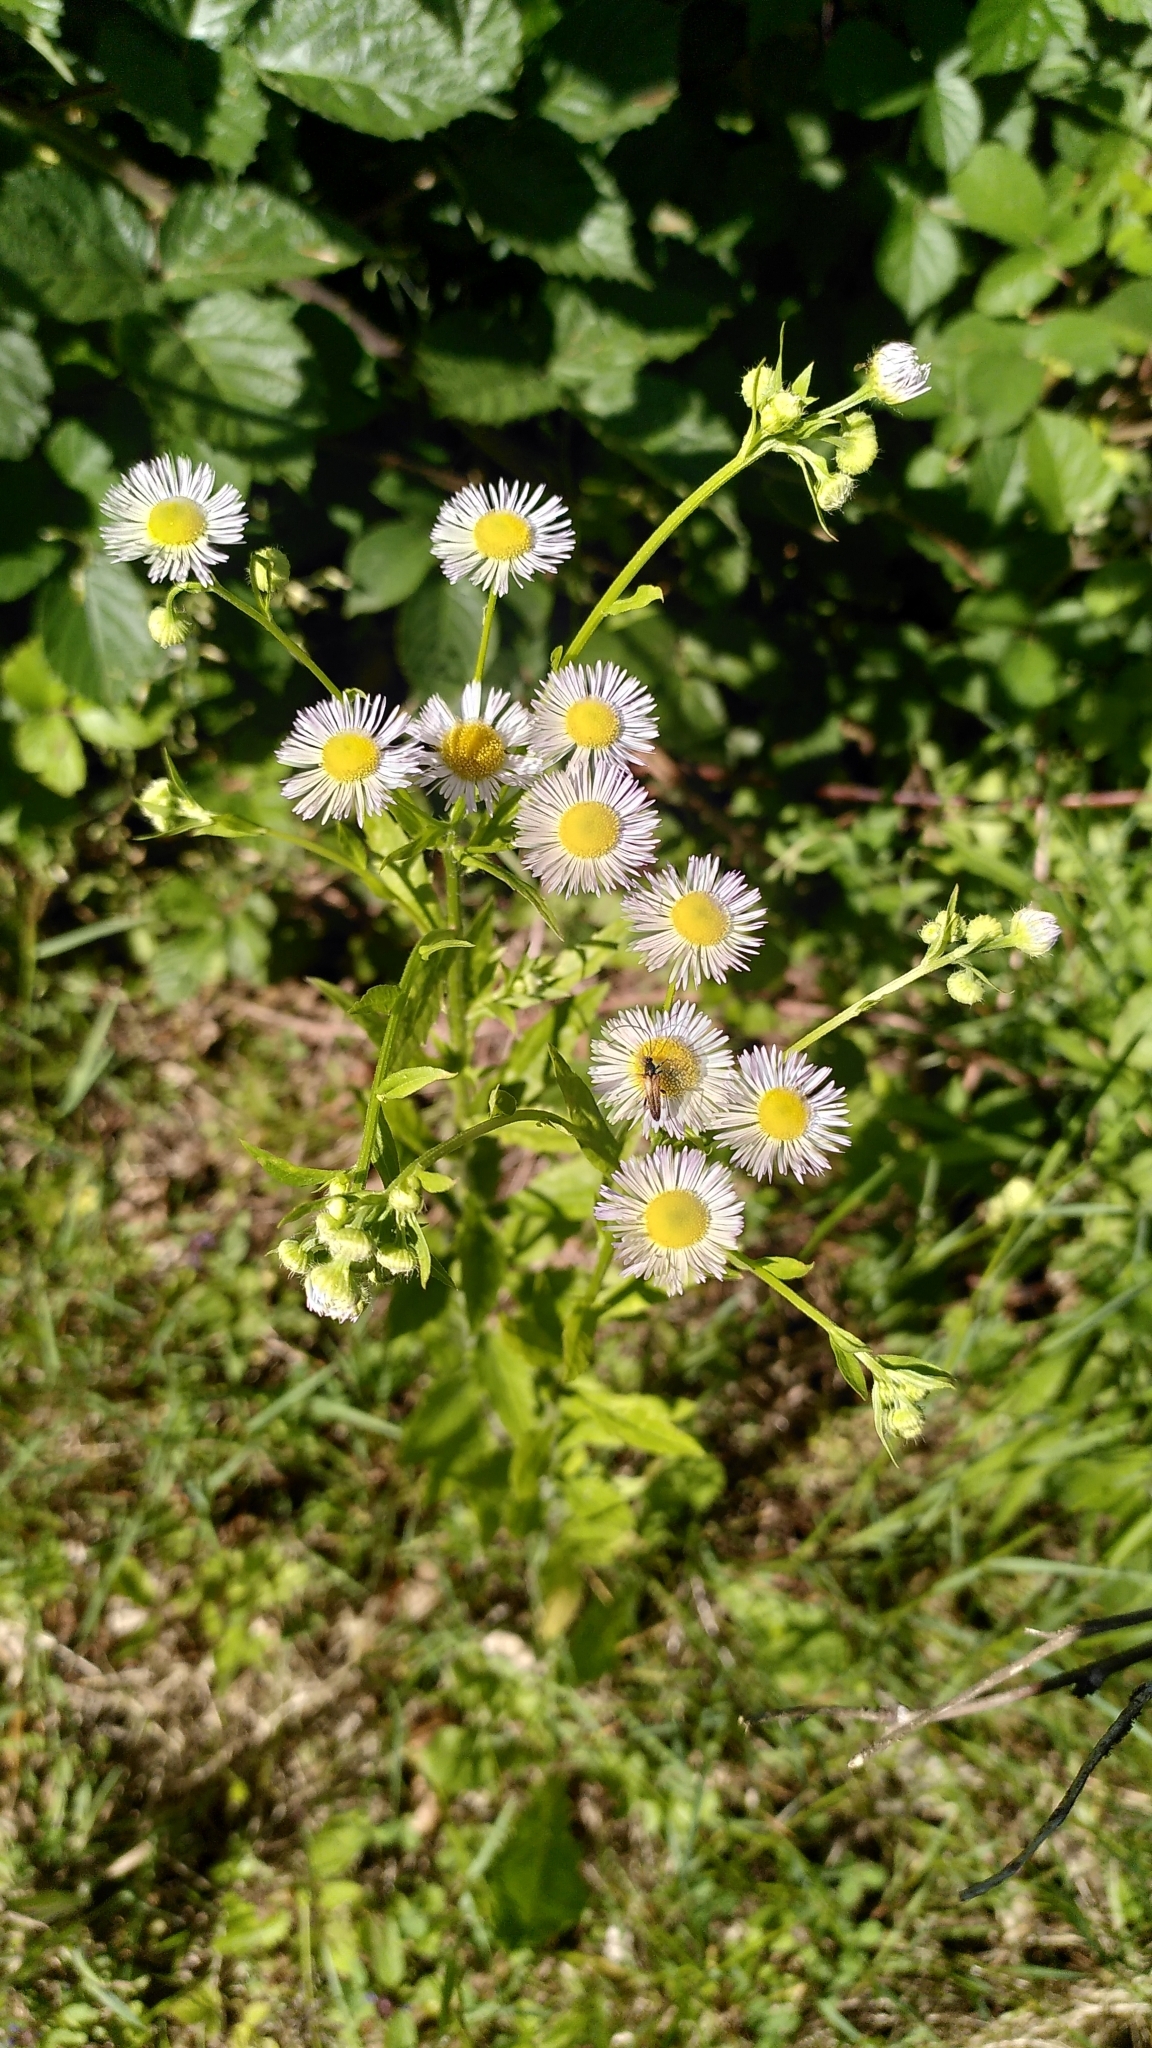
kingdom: Plantae
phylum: Tracheophyta
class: Magnoliopsida
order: Asterales
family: Asteraceae
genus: Erigeron
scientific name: Erigeron annuus
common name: Tall fleabane
